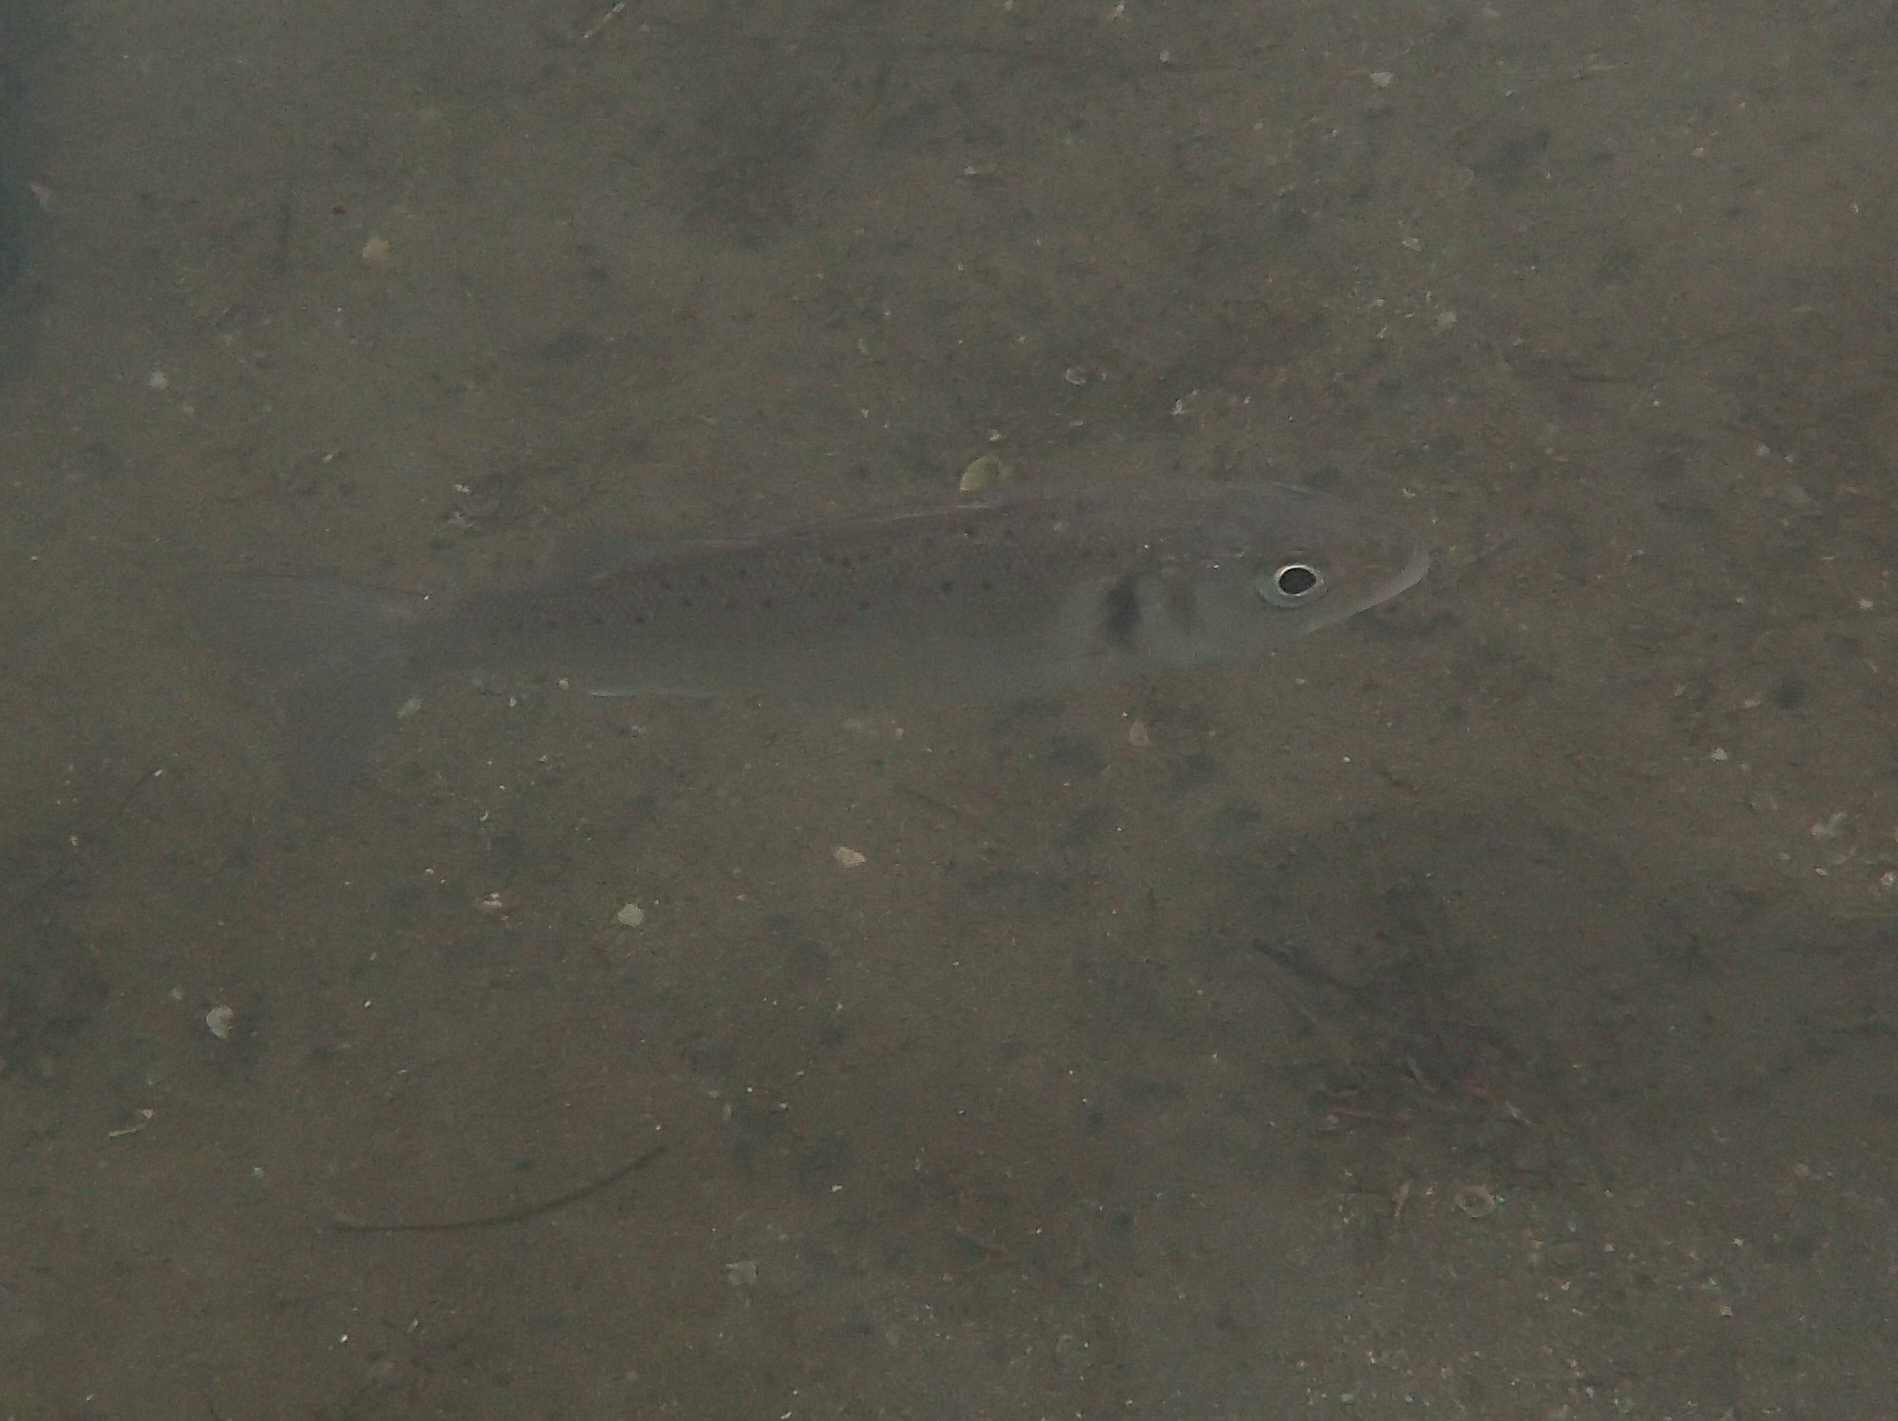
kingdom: Animalia
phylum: Chordata
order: Perciformes
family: Moronidae
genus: Dicentrarchus
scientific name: Dicentrarchus labrax
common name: European seabass
